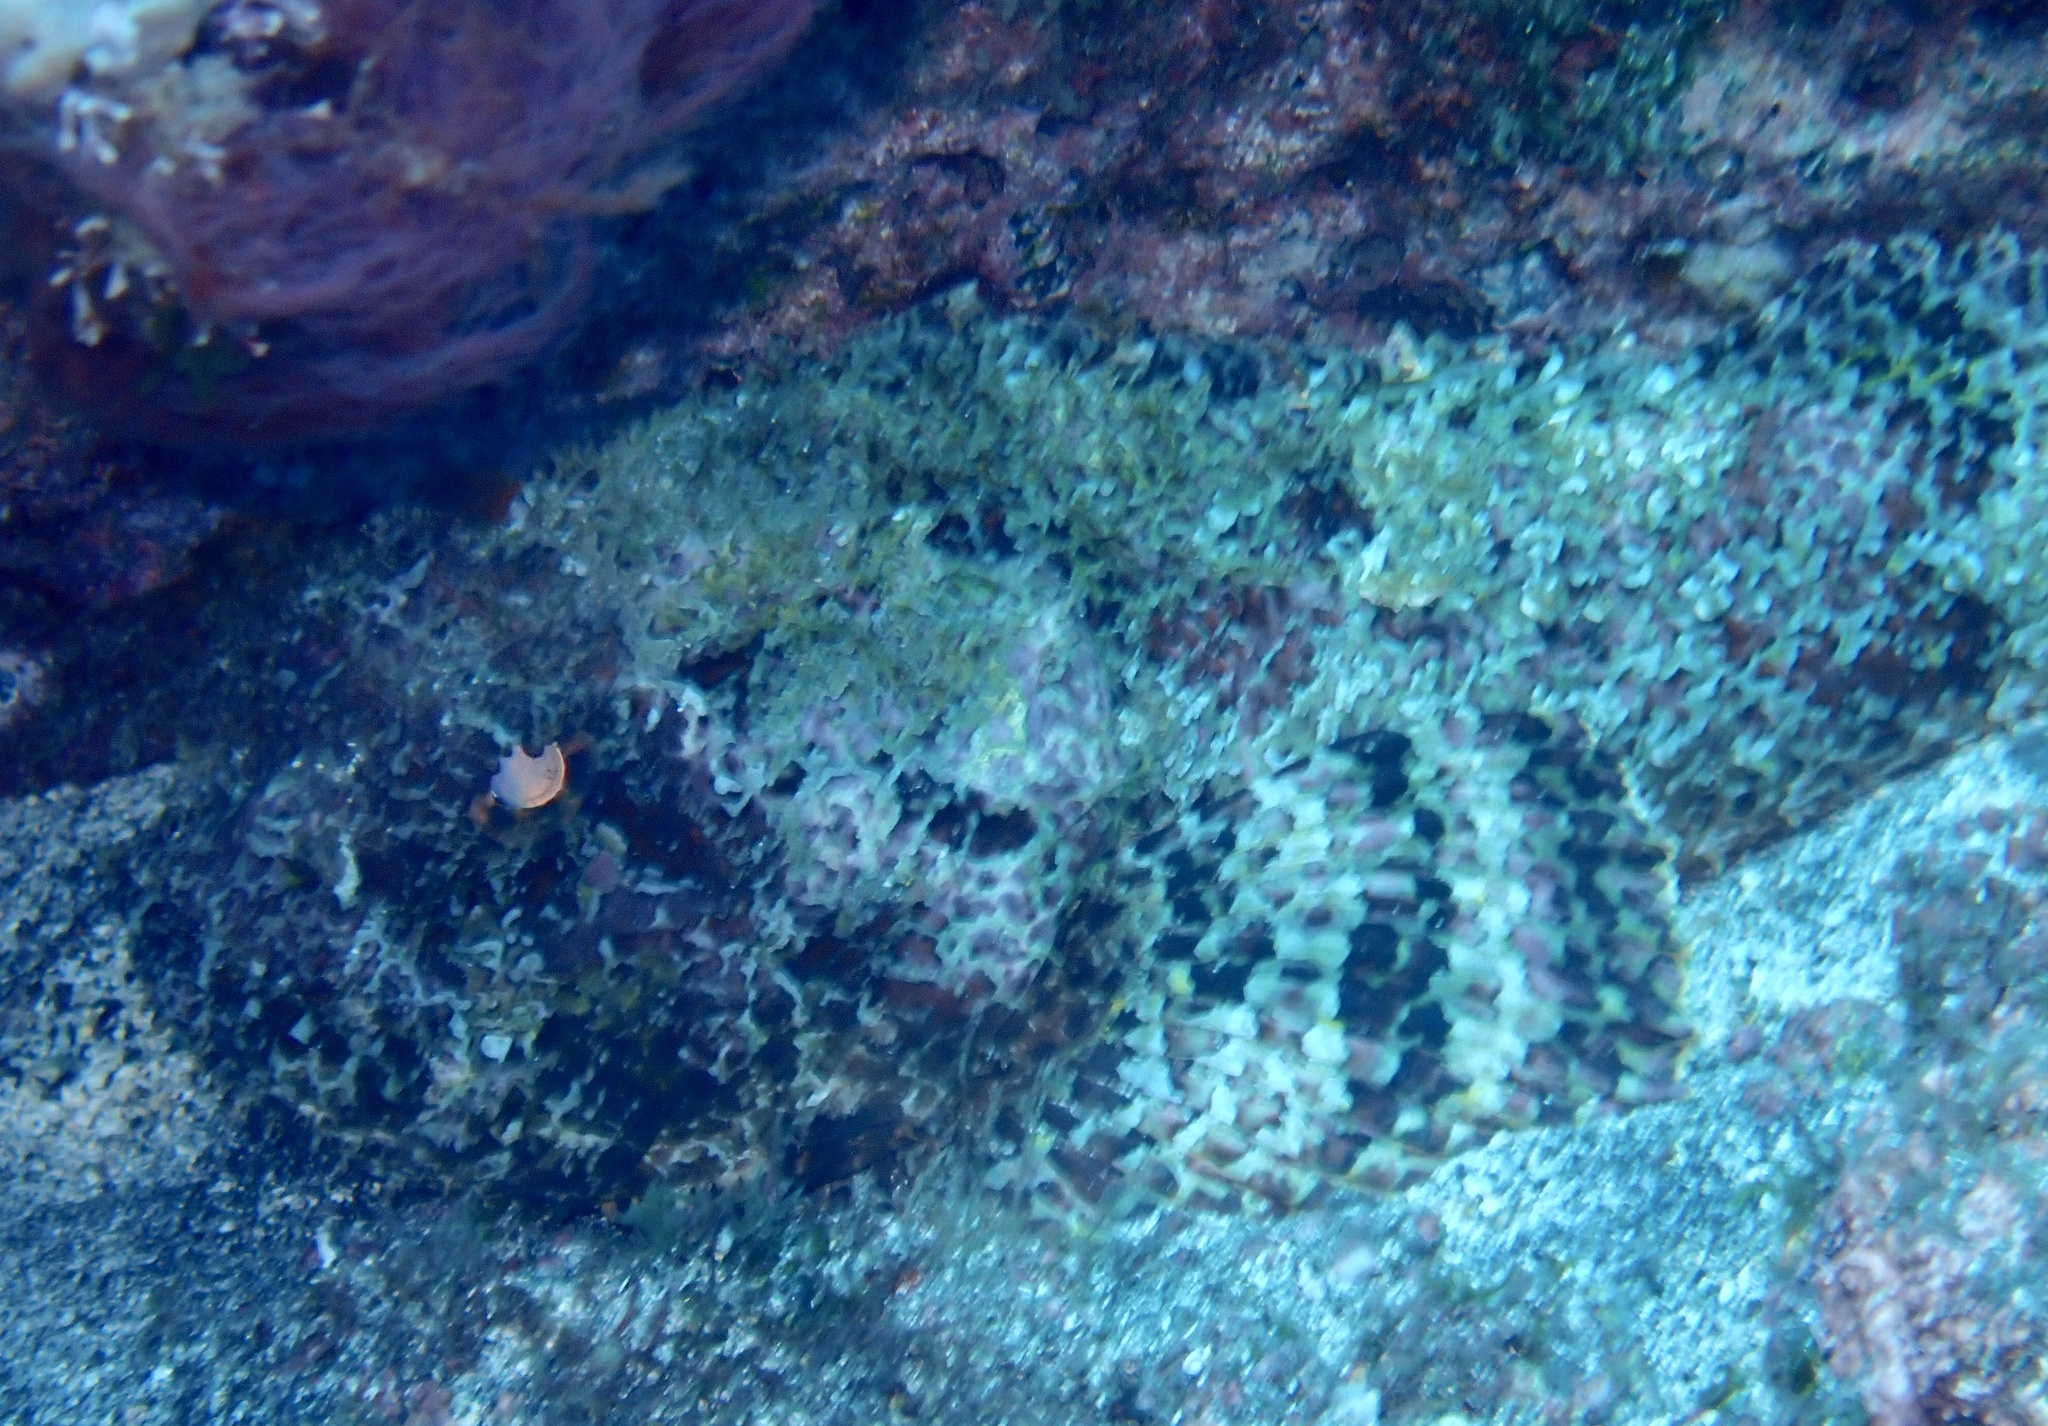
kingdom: Animalia
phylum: Chordata
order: Scorpaeniformes
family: Scorpaenidae
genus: Scorpaena
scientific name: Scorpaena laevis
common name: Senegalese rockfish
